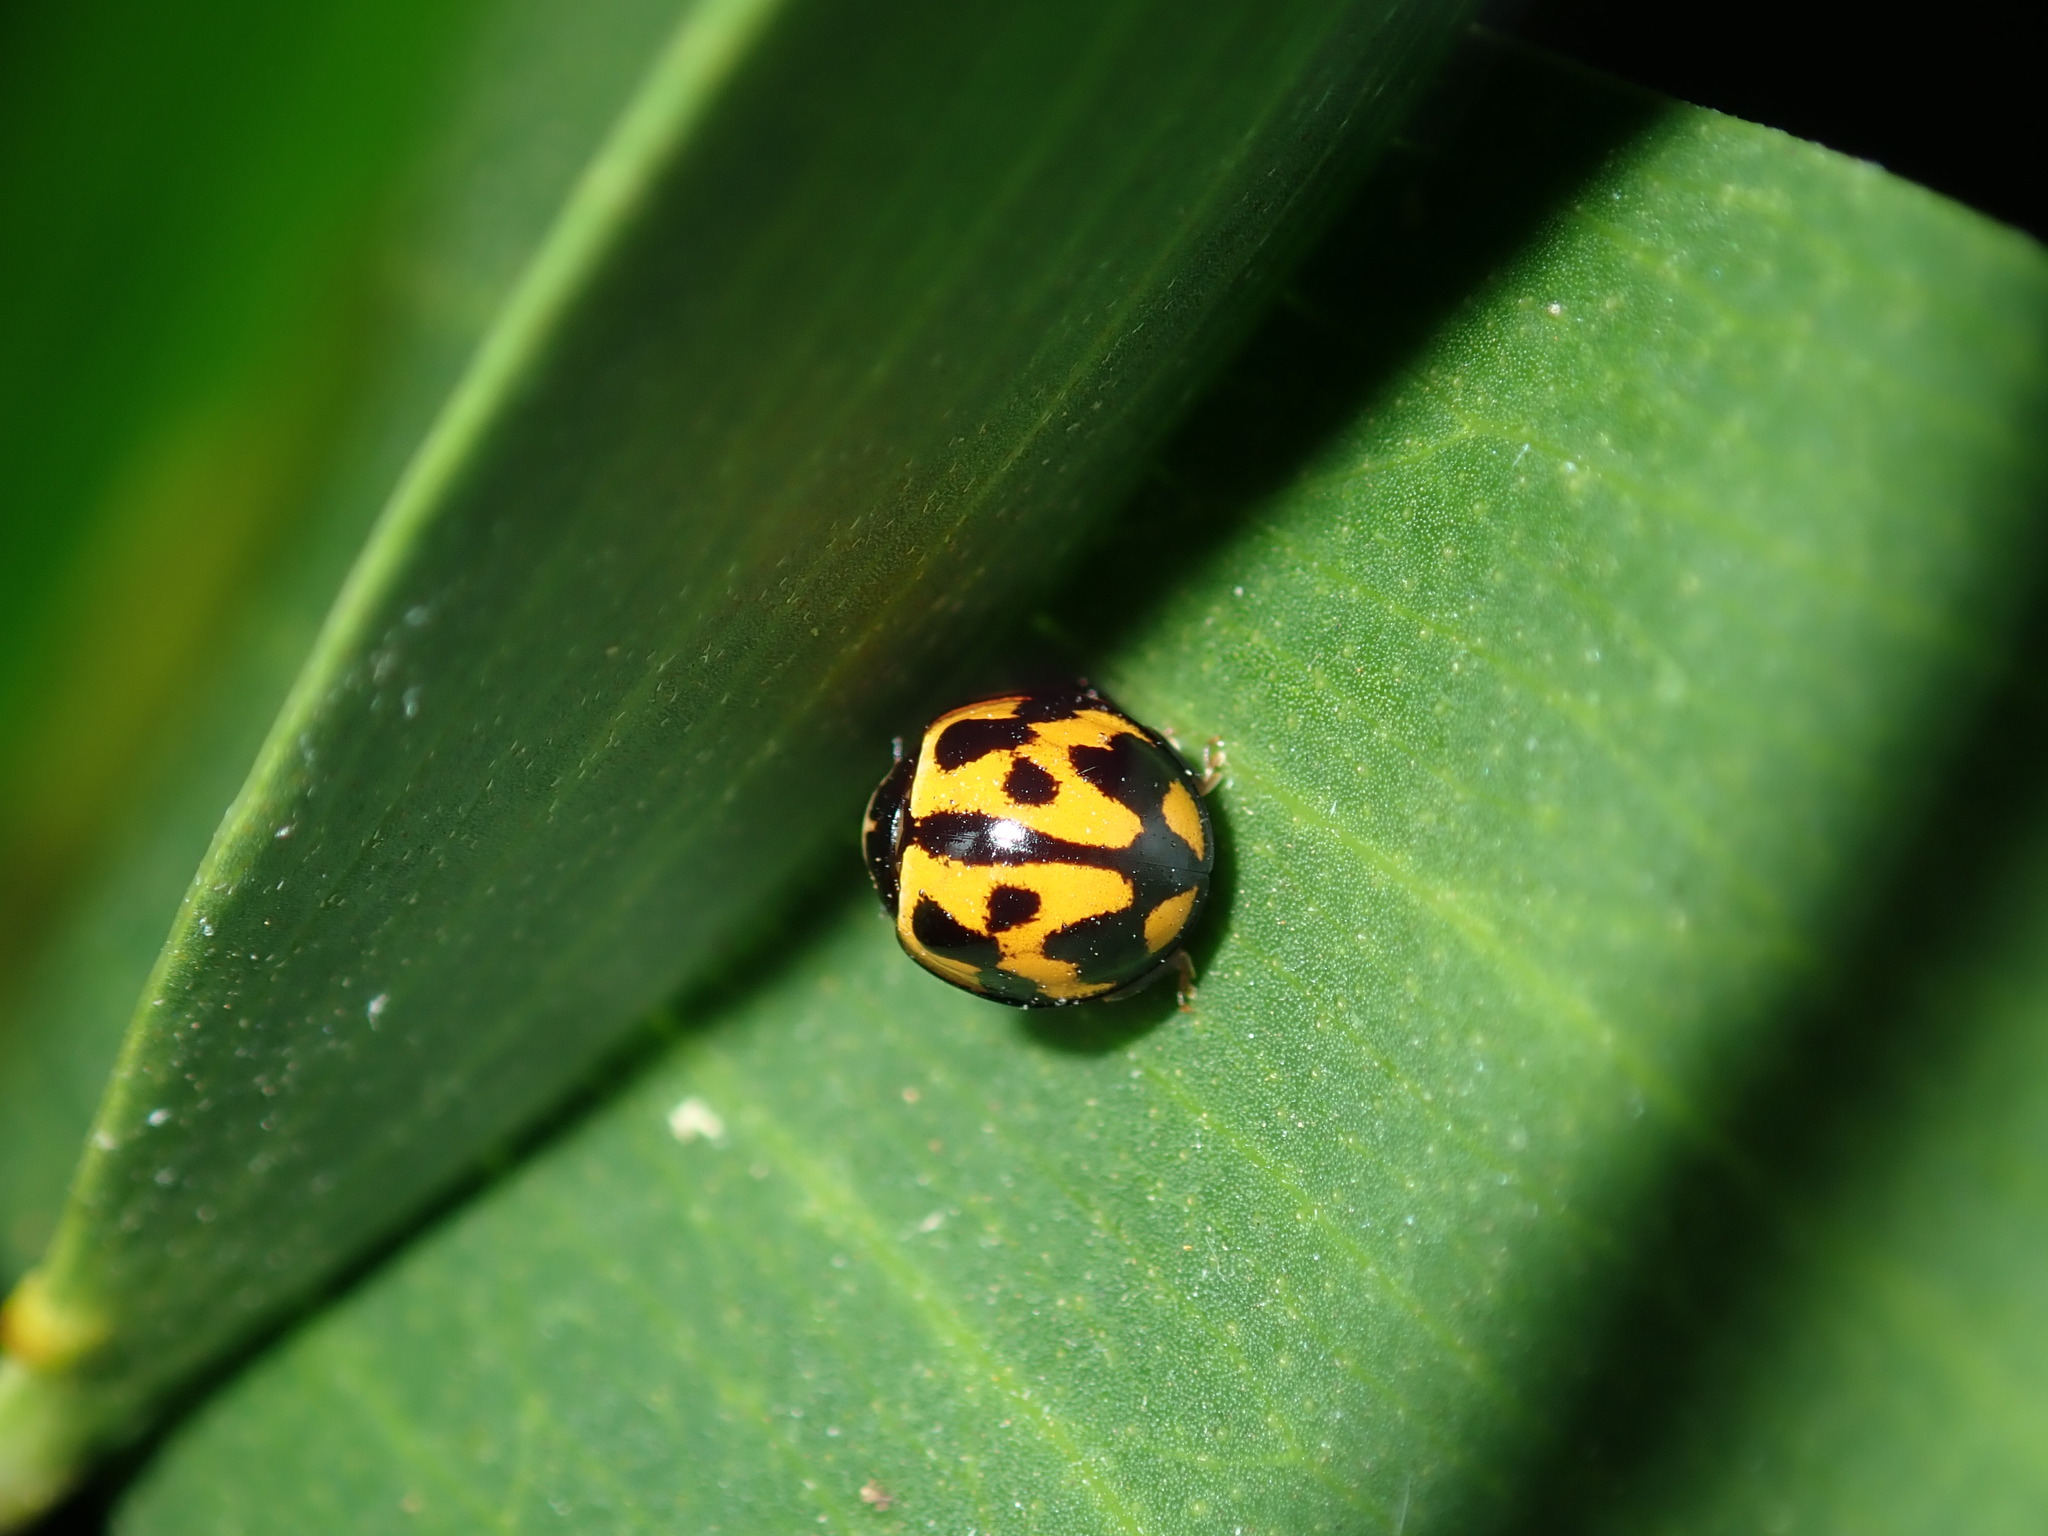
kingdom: Animalia
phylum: Arthropoda
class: Insecta
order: Coleoptera
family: Coccinellidae
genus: Coelophora
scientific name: Coelophora inaequalis
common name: Common australian lady beetle
